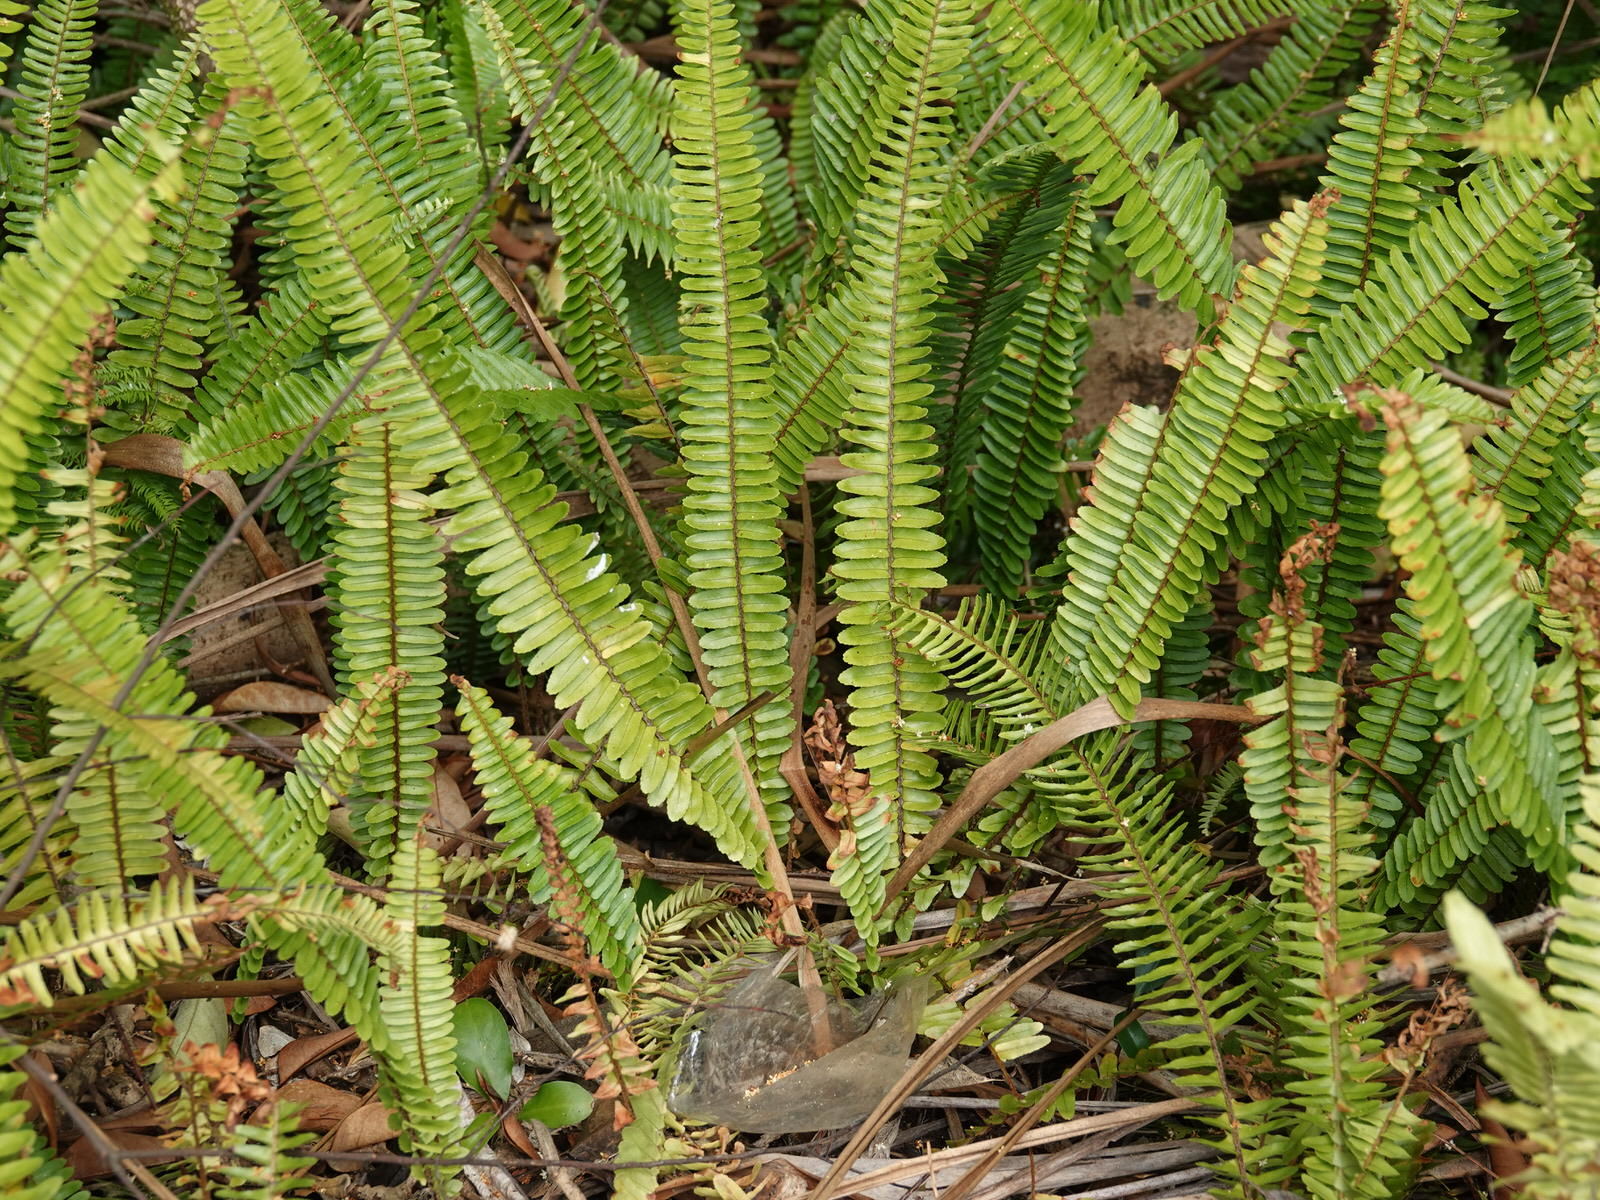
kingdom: Plantae
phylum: Tracheophyta
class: Polypodiopsida
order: Polypodiales
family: Nephrolepidaceae
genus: Nephrolepis
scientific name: Nephrolepis cordifolia
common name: Narrow swordfern
